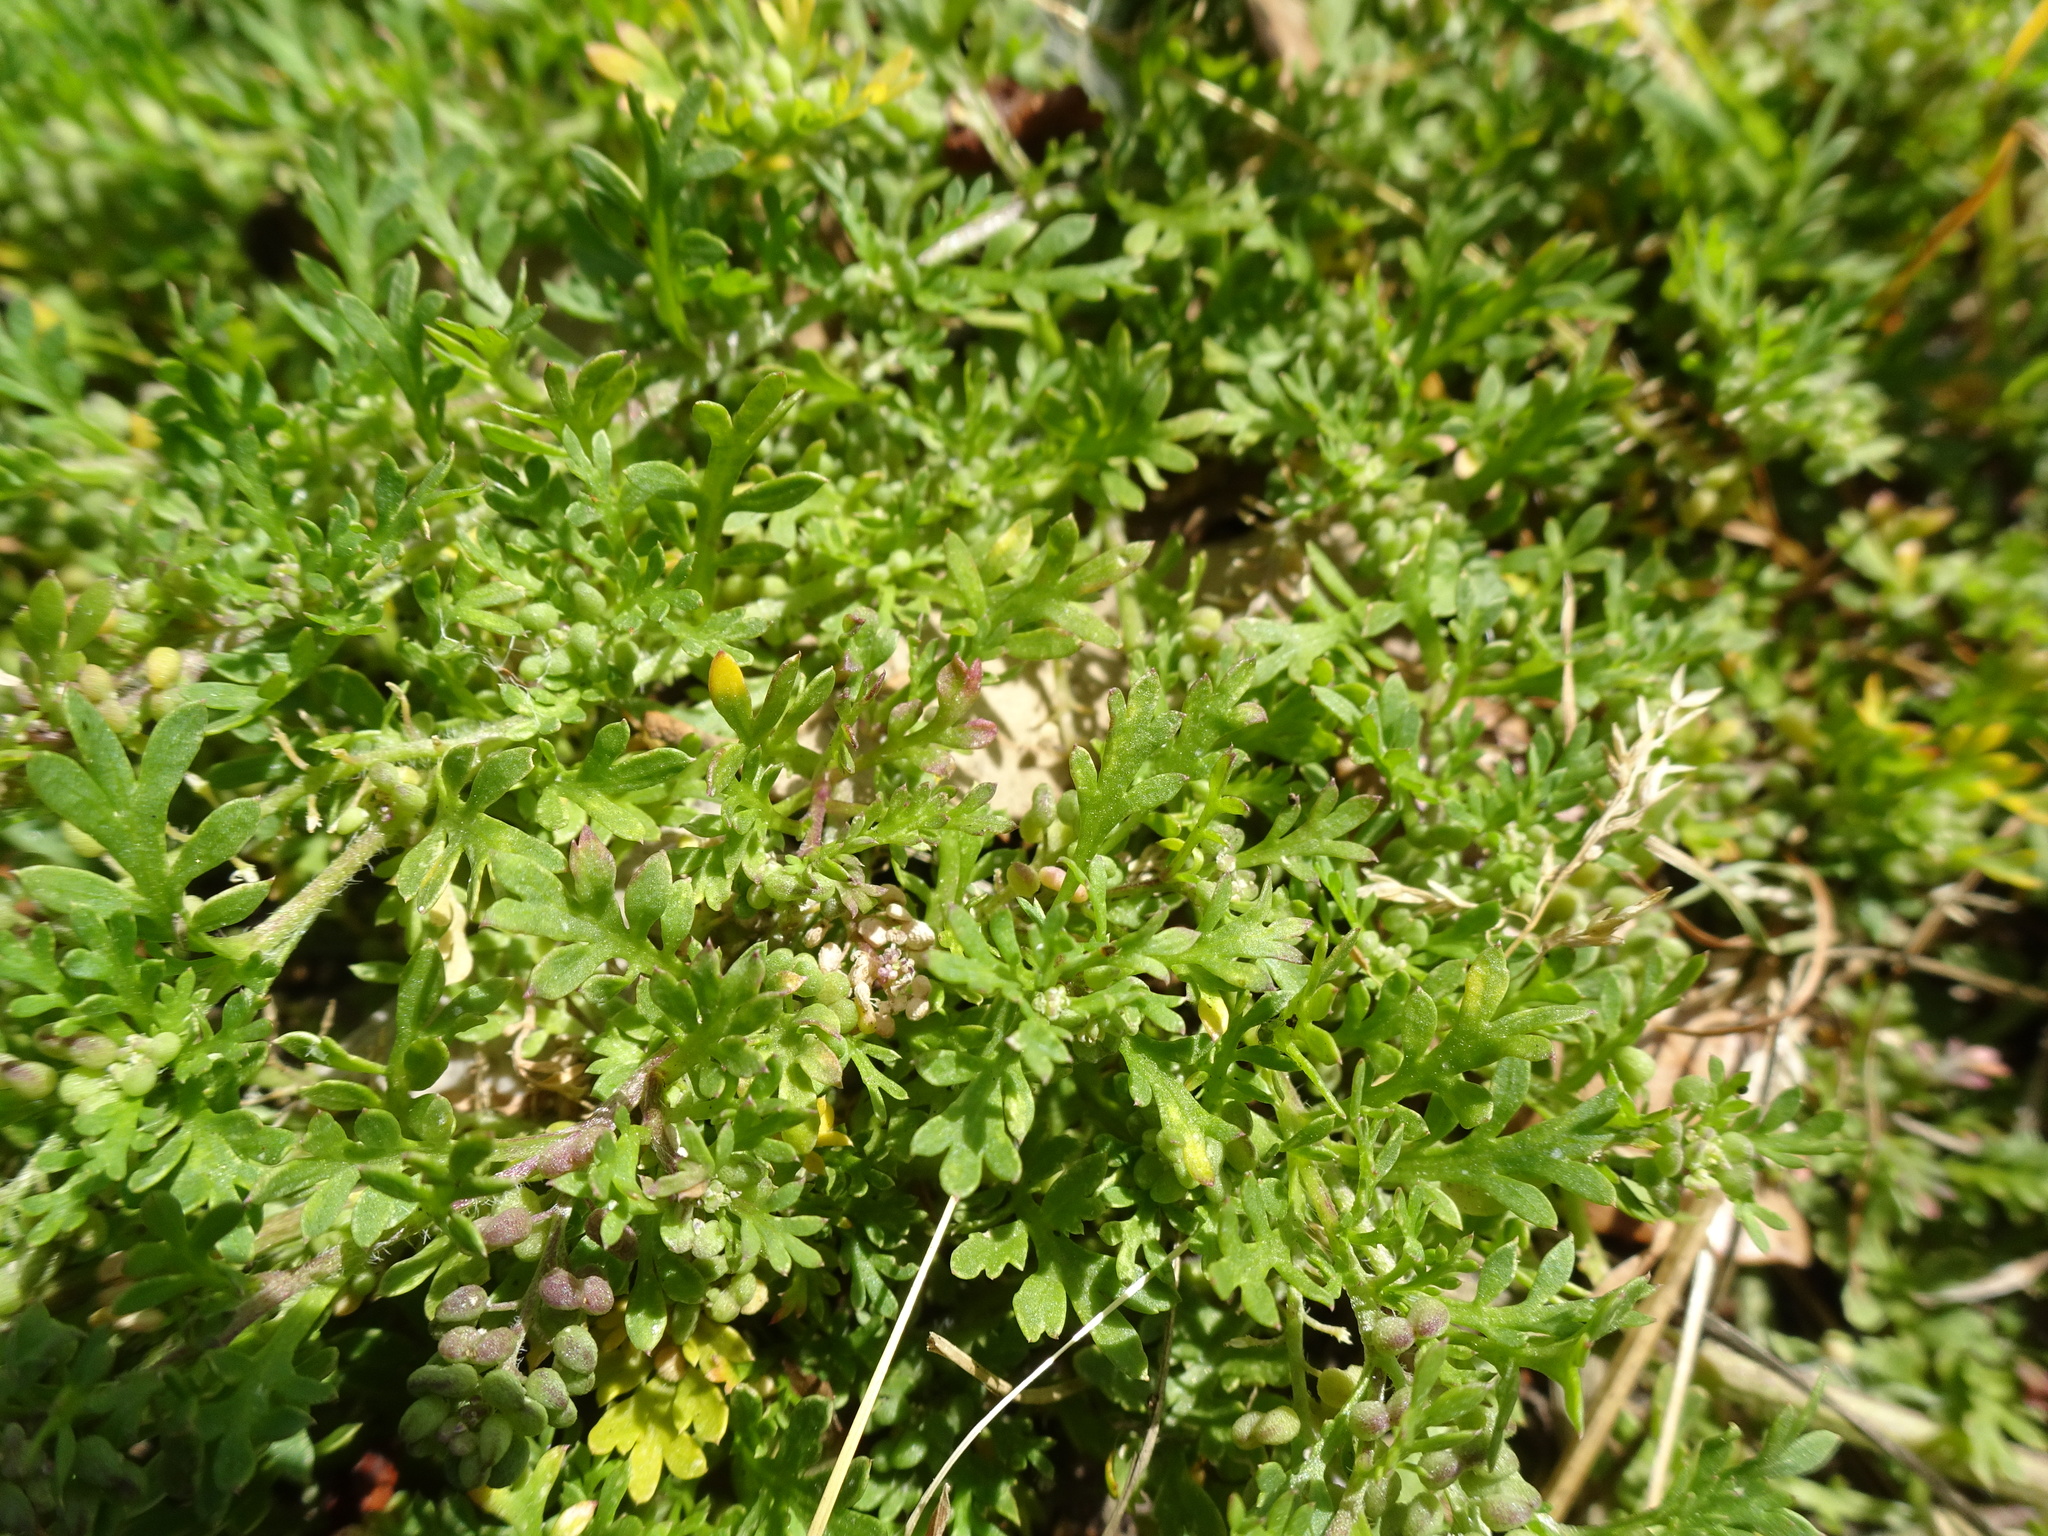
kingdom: Plantae
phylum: Tracheophyta
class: Magnoliopsida
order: Brassicales
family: Brassicaceae
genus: Lepidium
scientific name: Lepidium didymum
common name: Lesser swinecress
